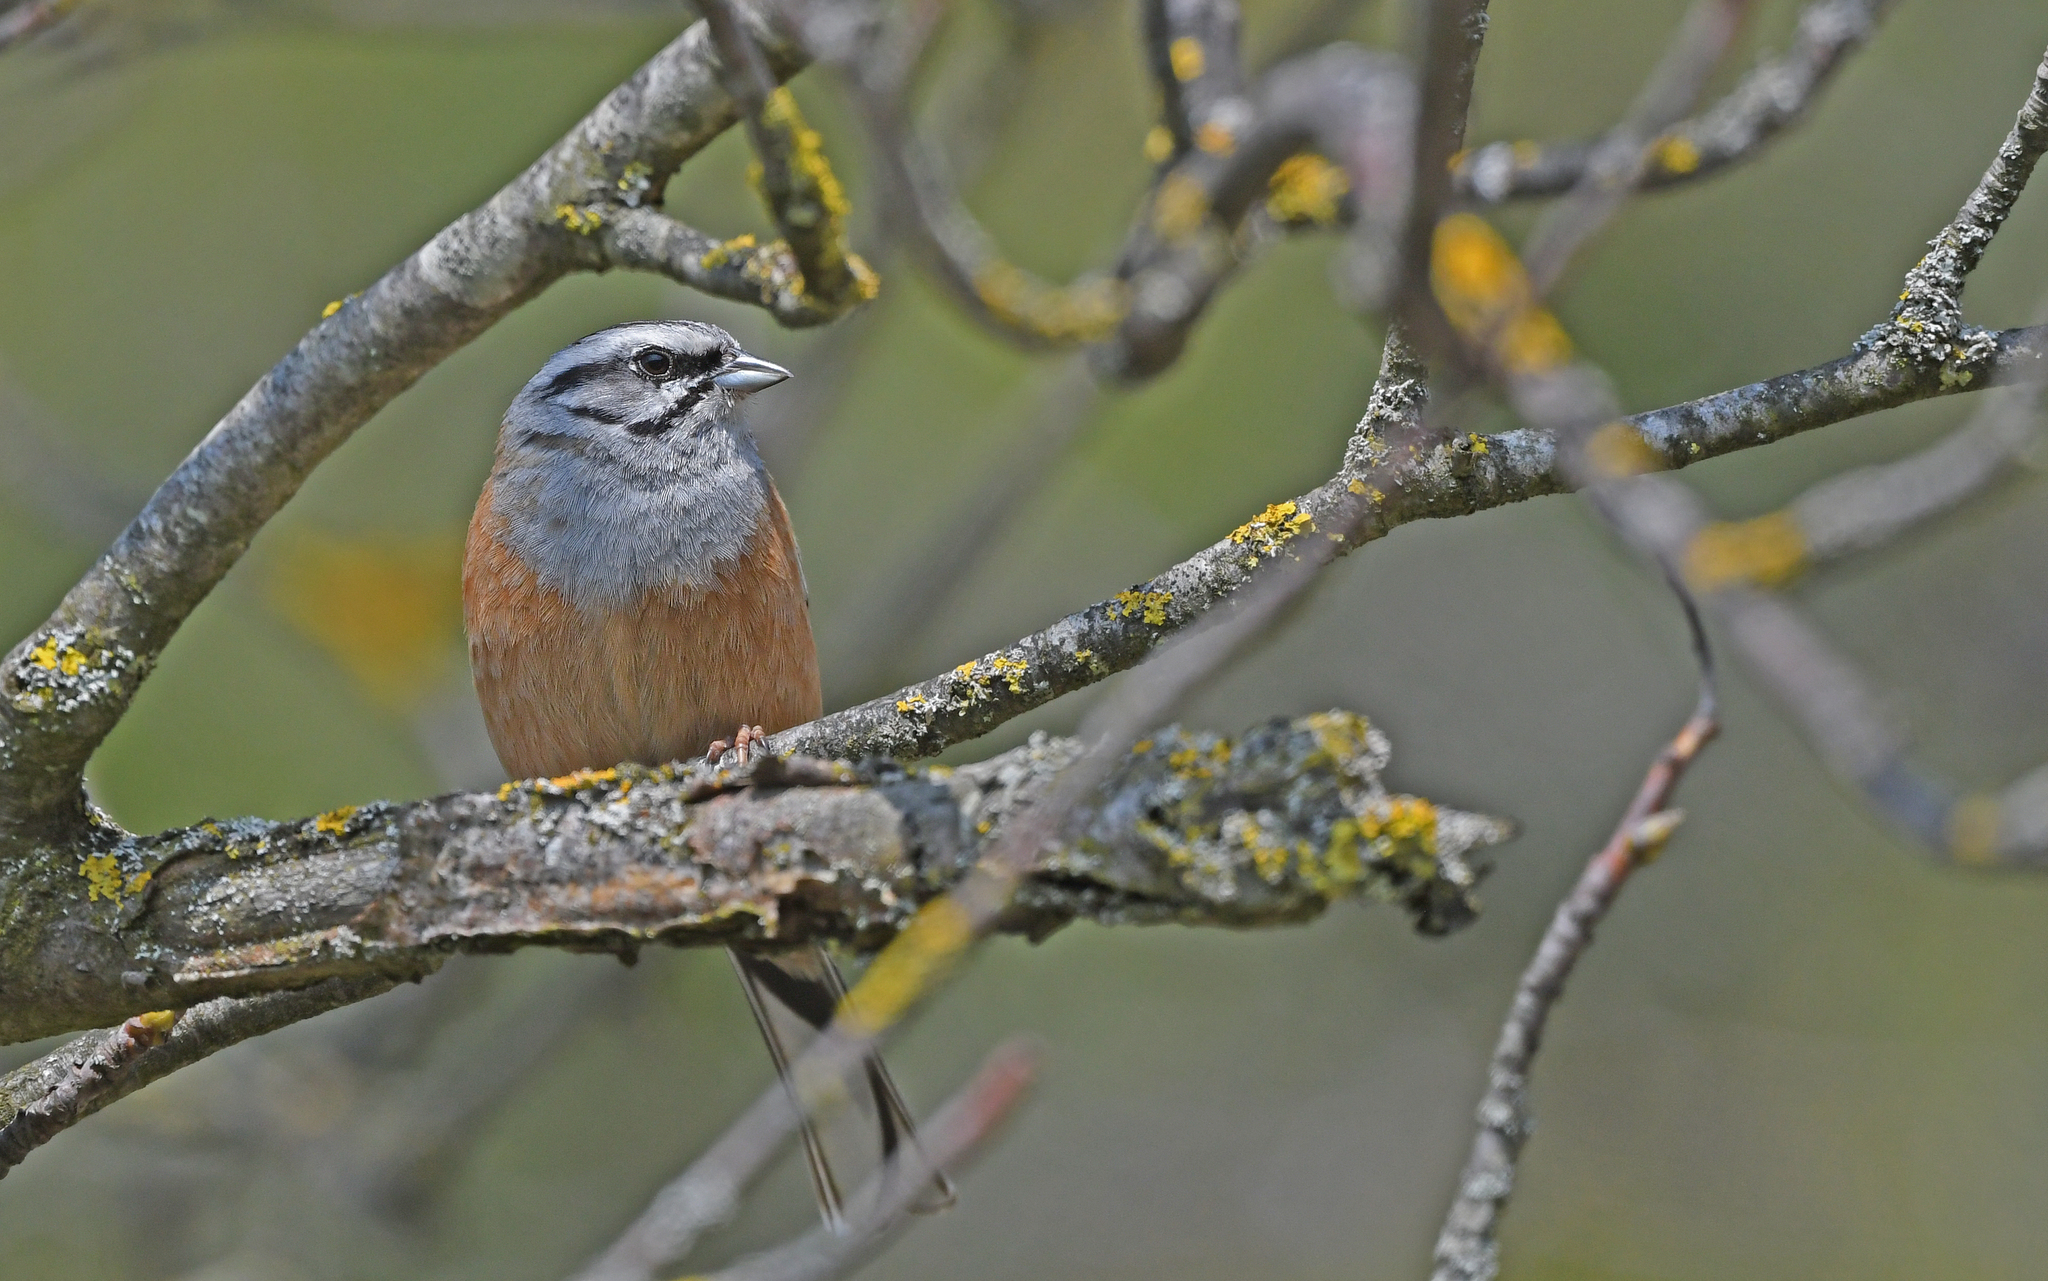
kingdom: Animalia
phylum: Chordata
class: Aves
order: Passeriformes
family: Emberizidae
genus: Emberiza
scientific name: Emberiza cia
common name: Rock bunting
